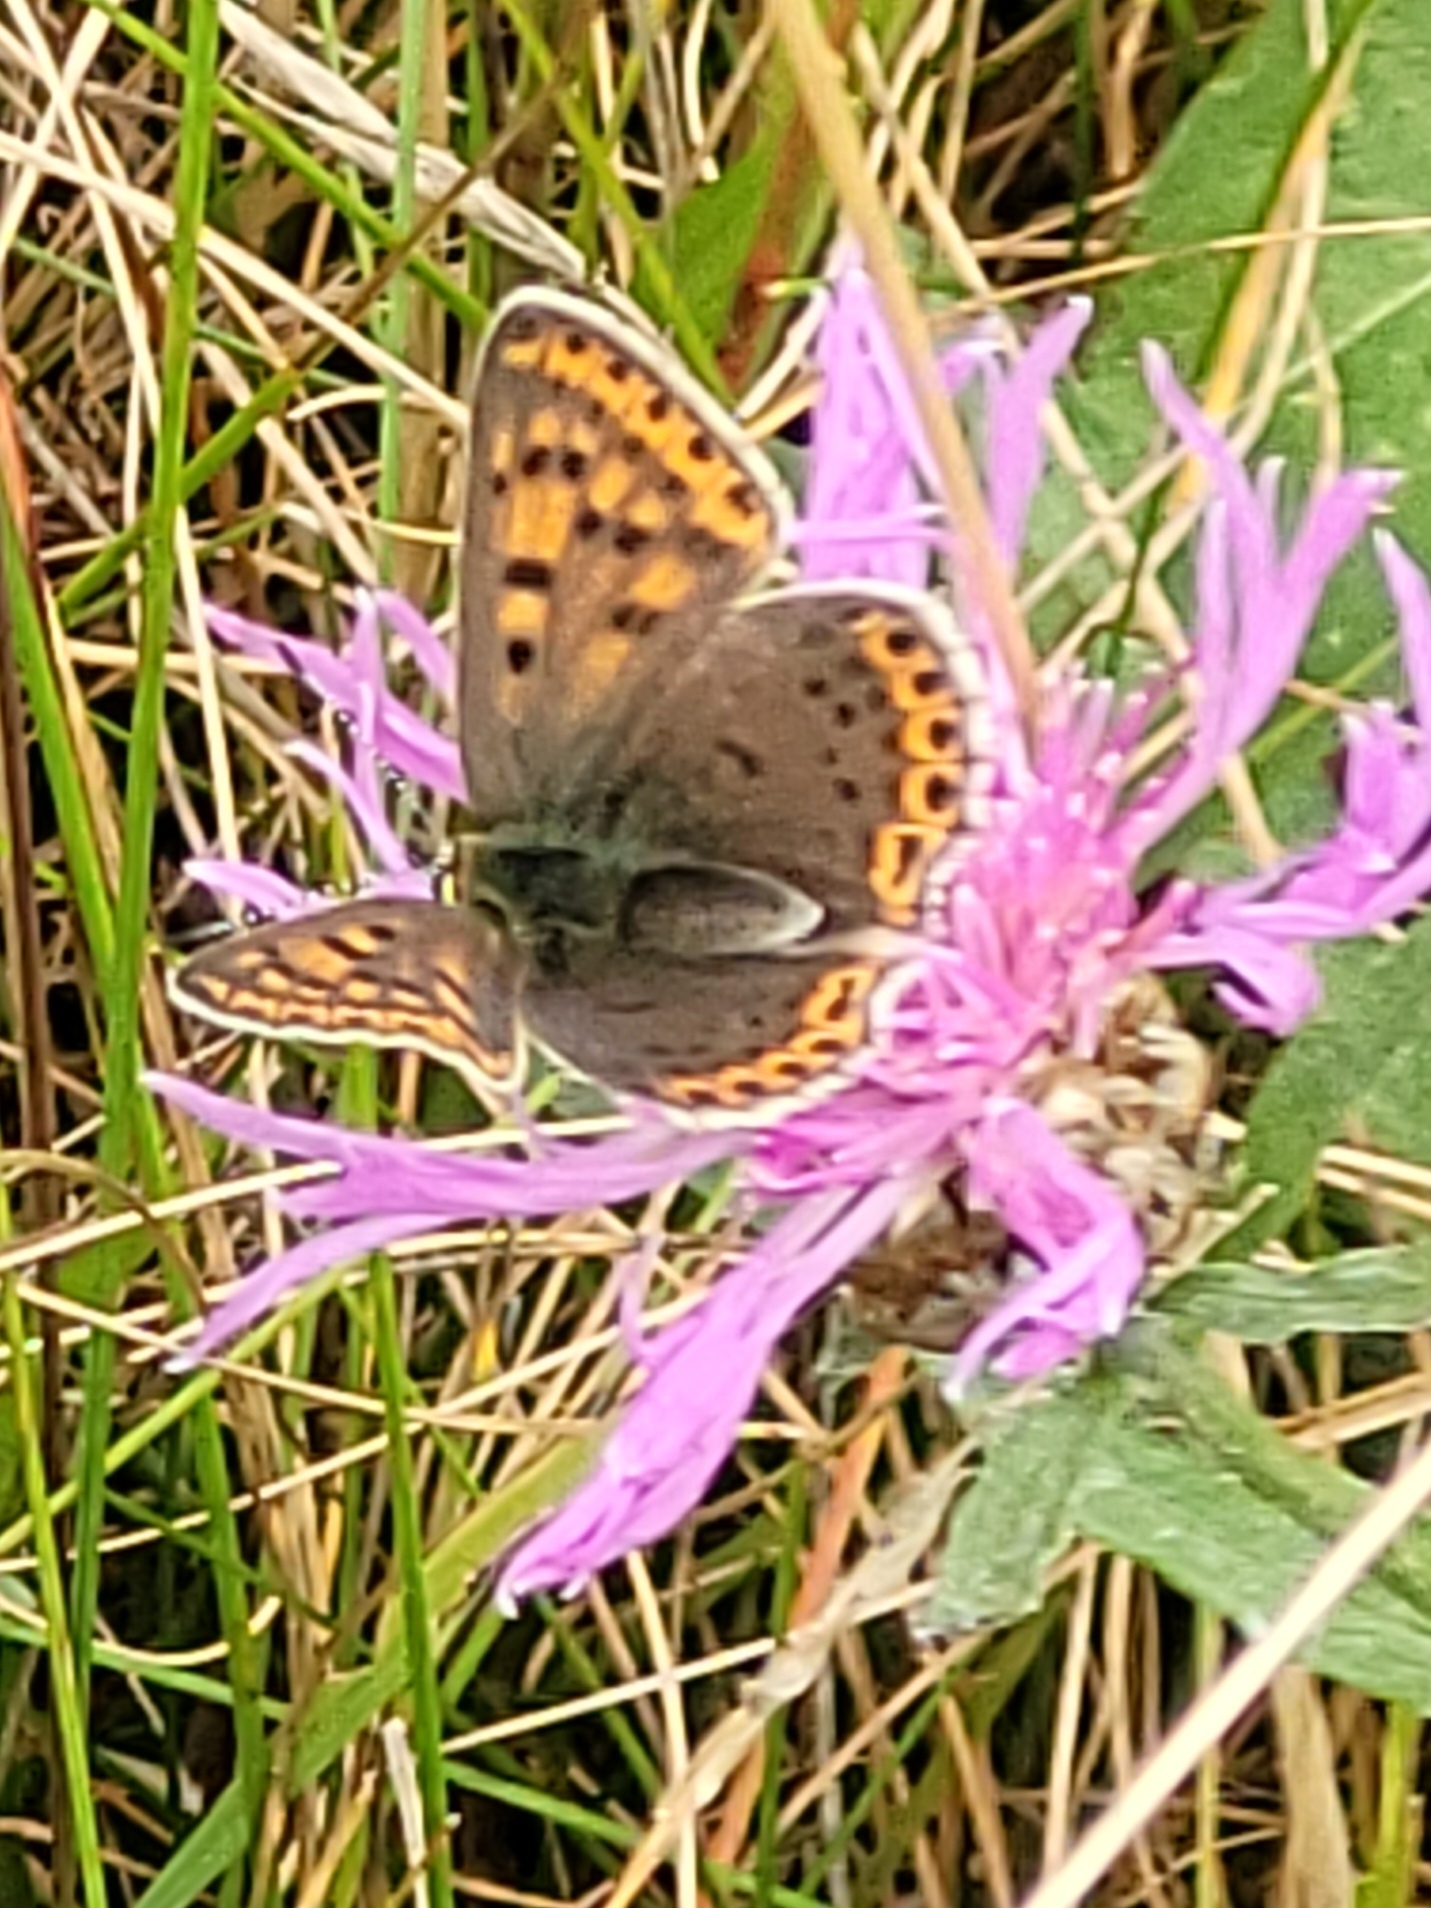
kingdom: Animalia
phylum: Arthropoda
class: Insecta
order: Lepidoptera
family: Lycaenidae
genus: Loweia
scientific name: Loweia tityrus
